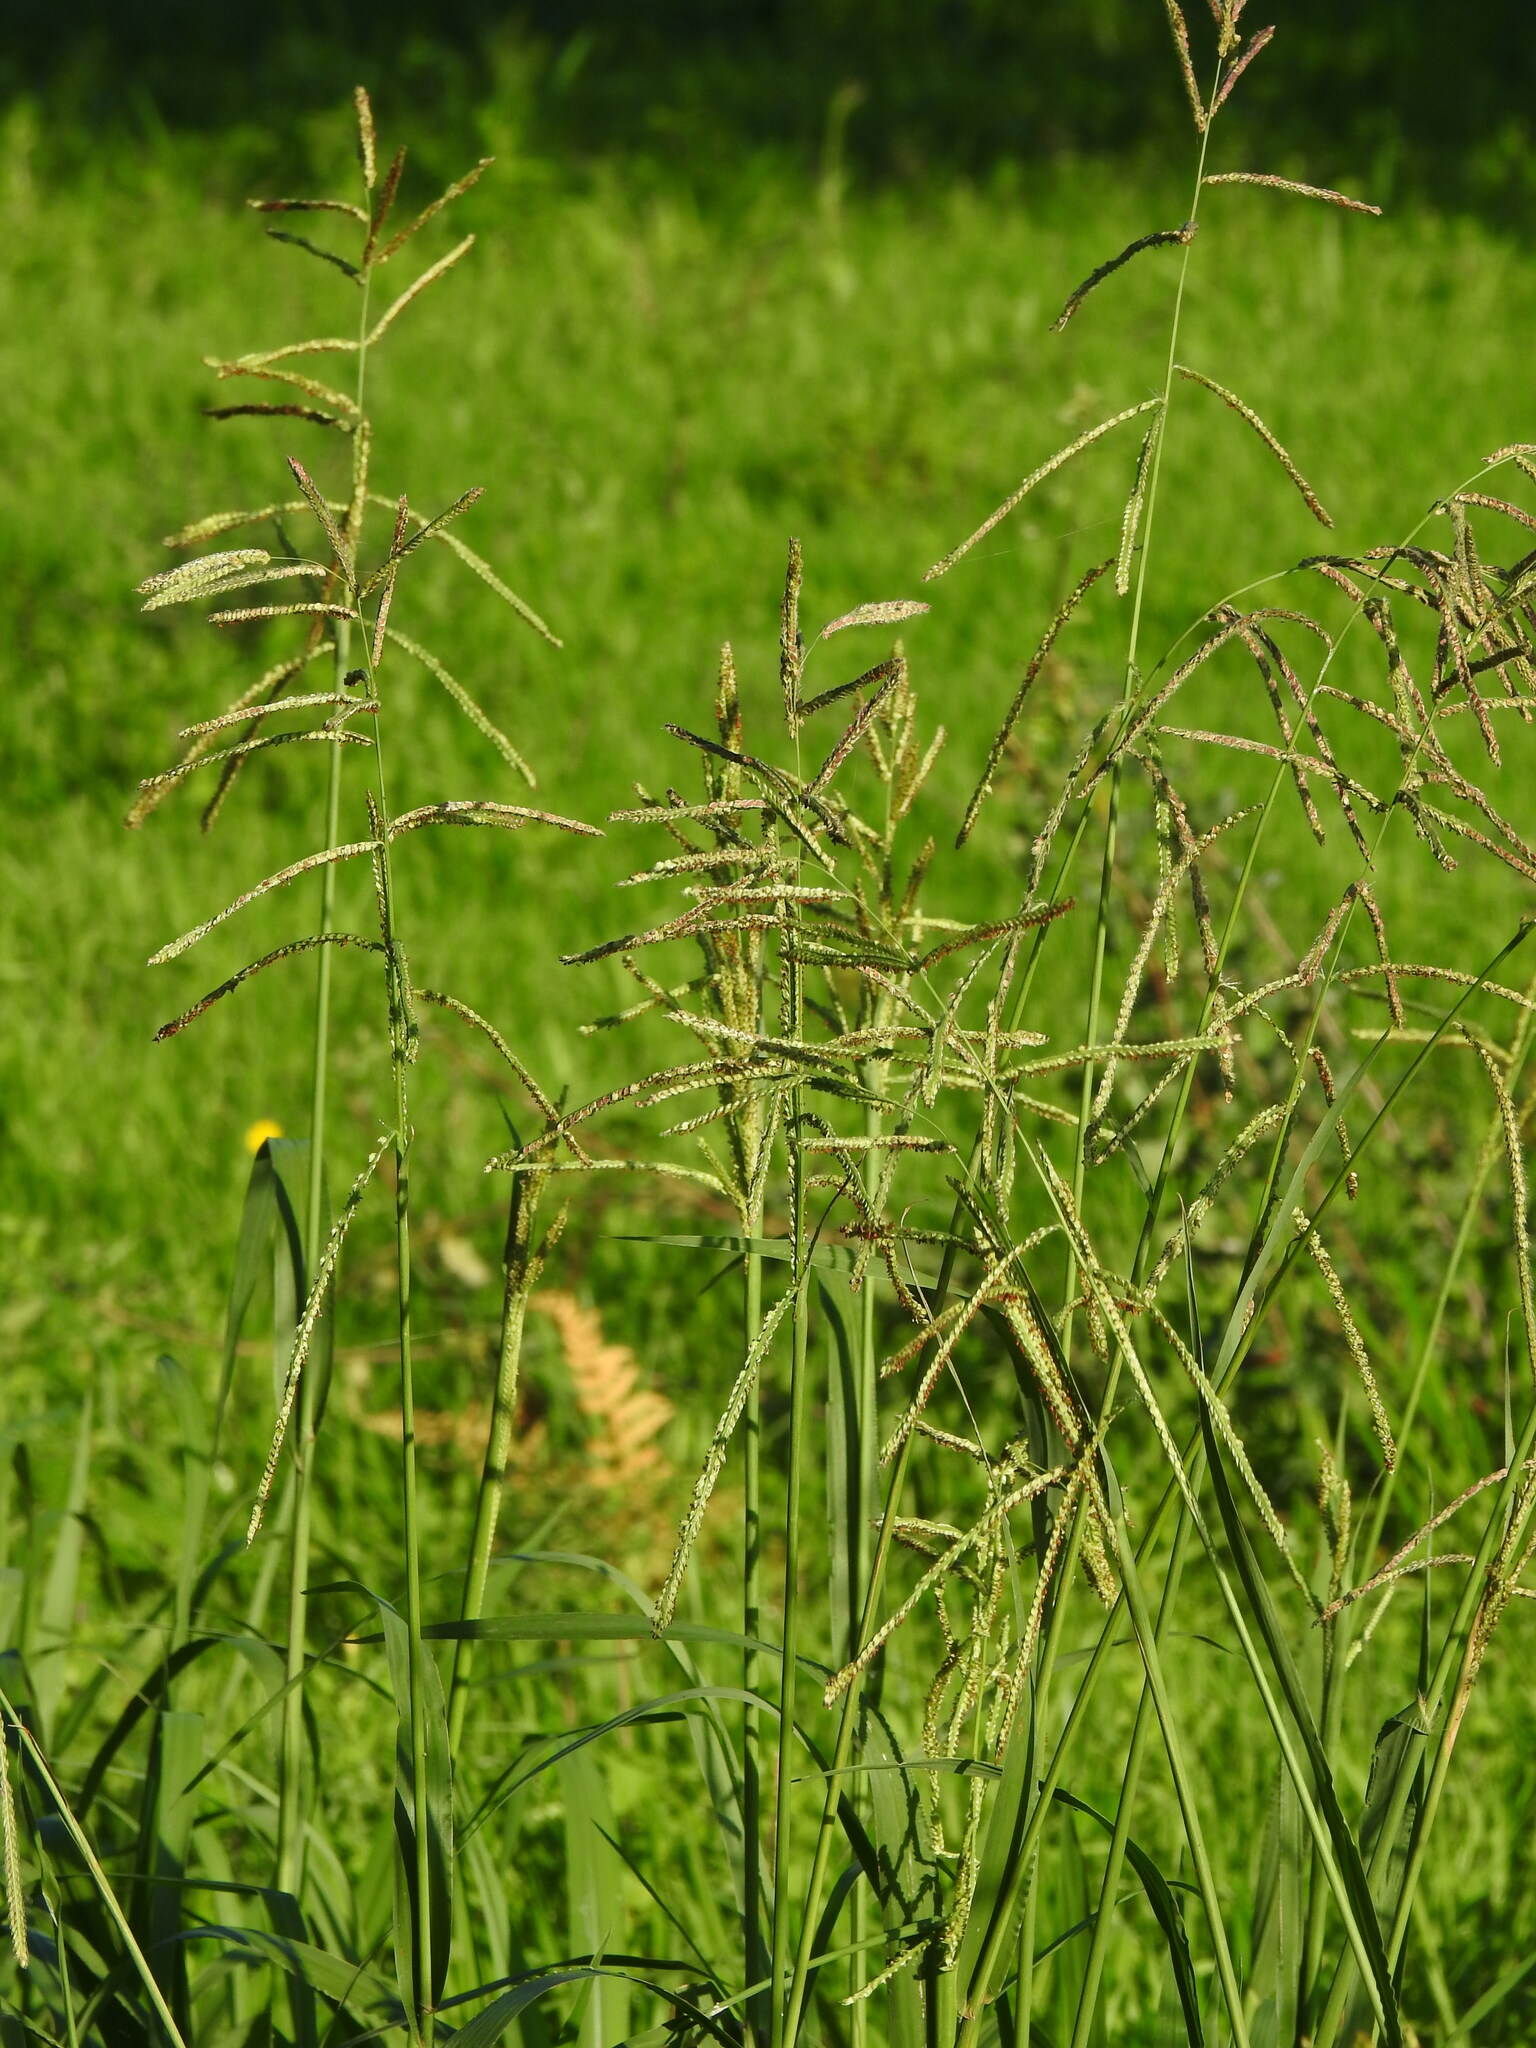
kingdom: Plantae
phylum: Tracheophyta
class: Liliopsida
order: Poales
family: Poaceae
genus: Paspalum
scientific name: Paspalum urvillei
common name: Vasey's grass
